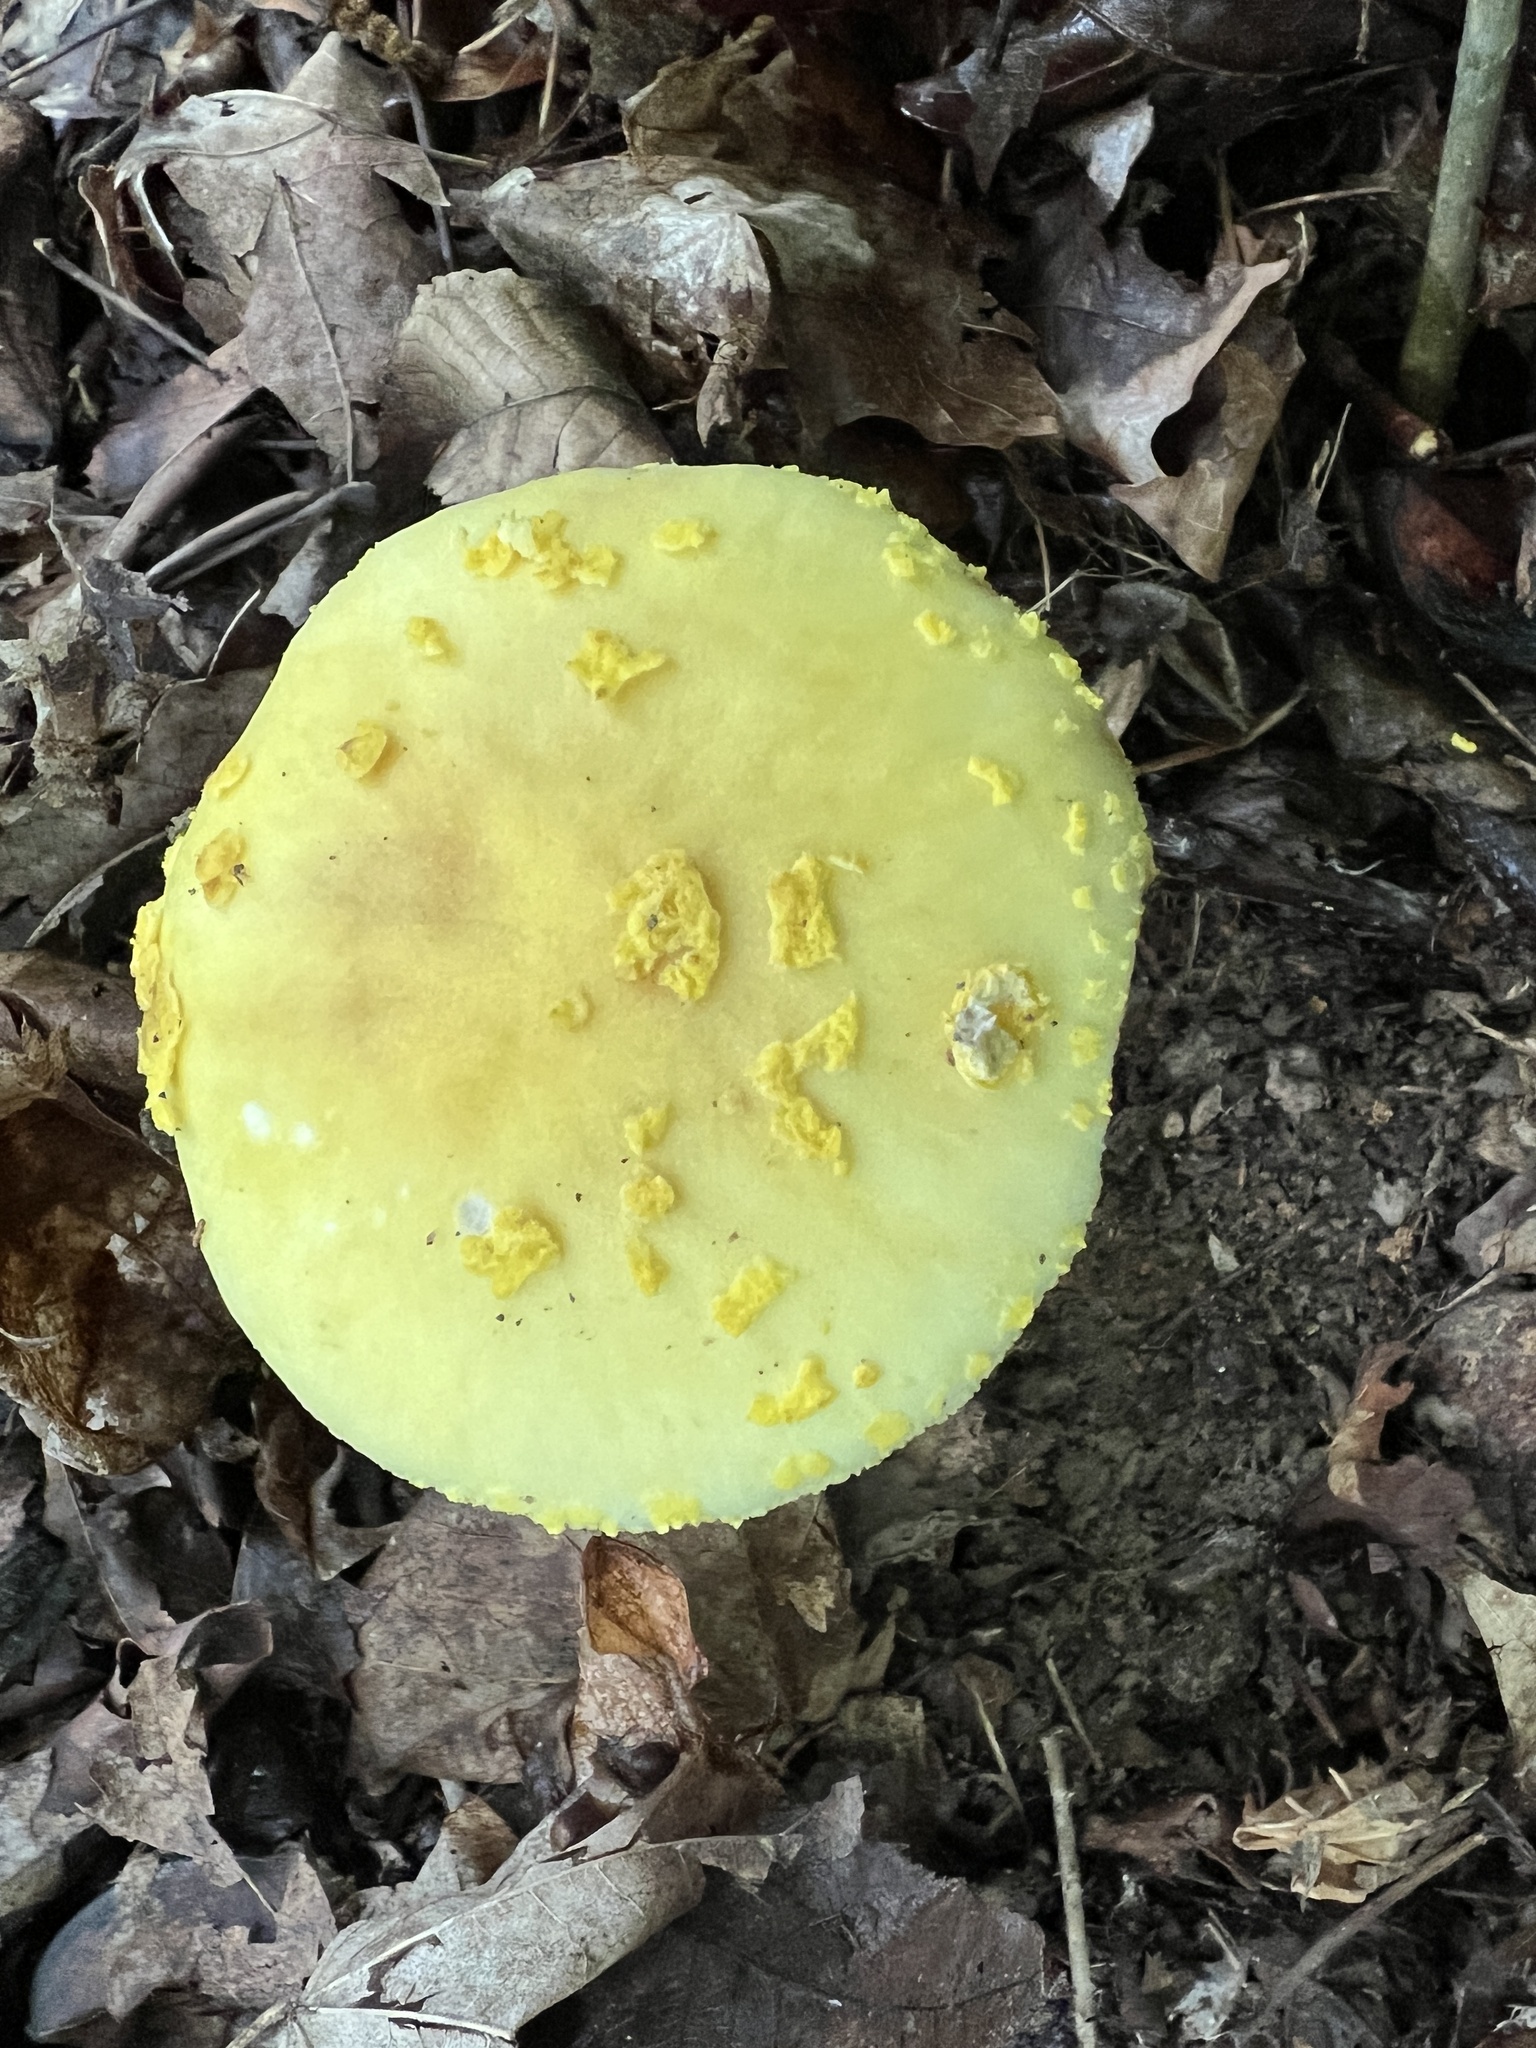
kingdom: Fungi
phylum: Basidiomycota
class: Agaricomycetes
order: Agaricales
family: Amanitaceae
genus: Amanita
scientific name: Amanita flavoconia
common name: Yellow patches
